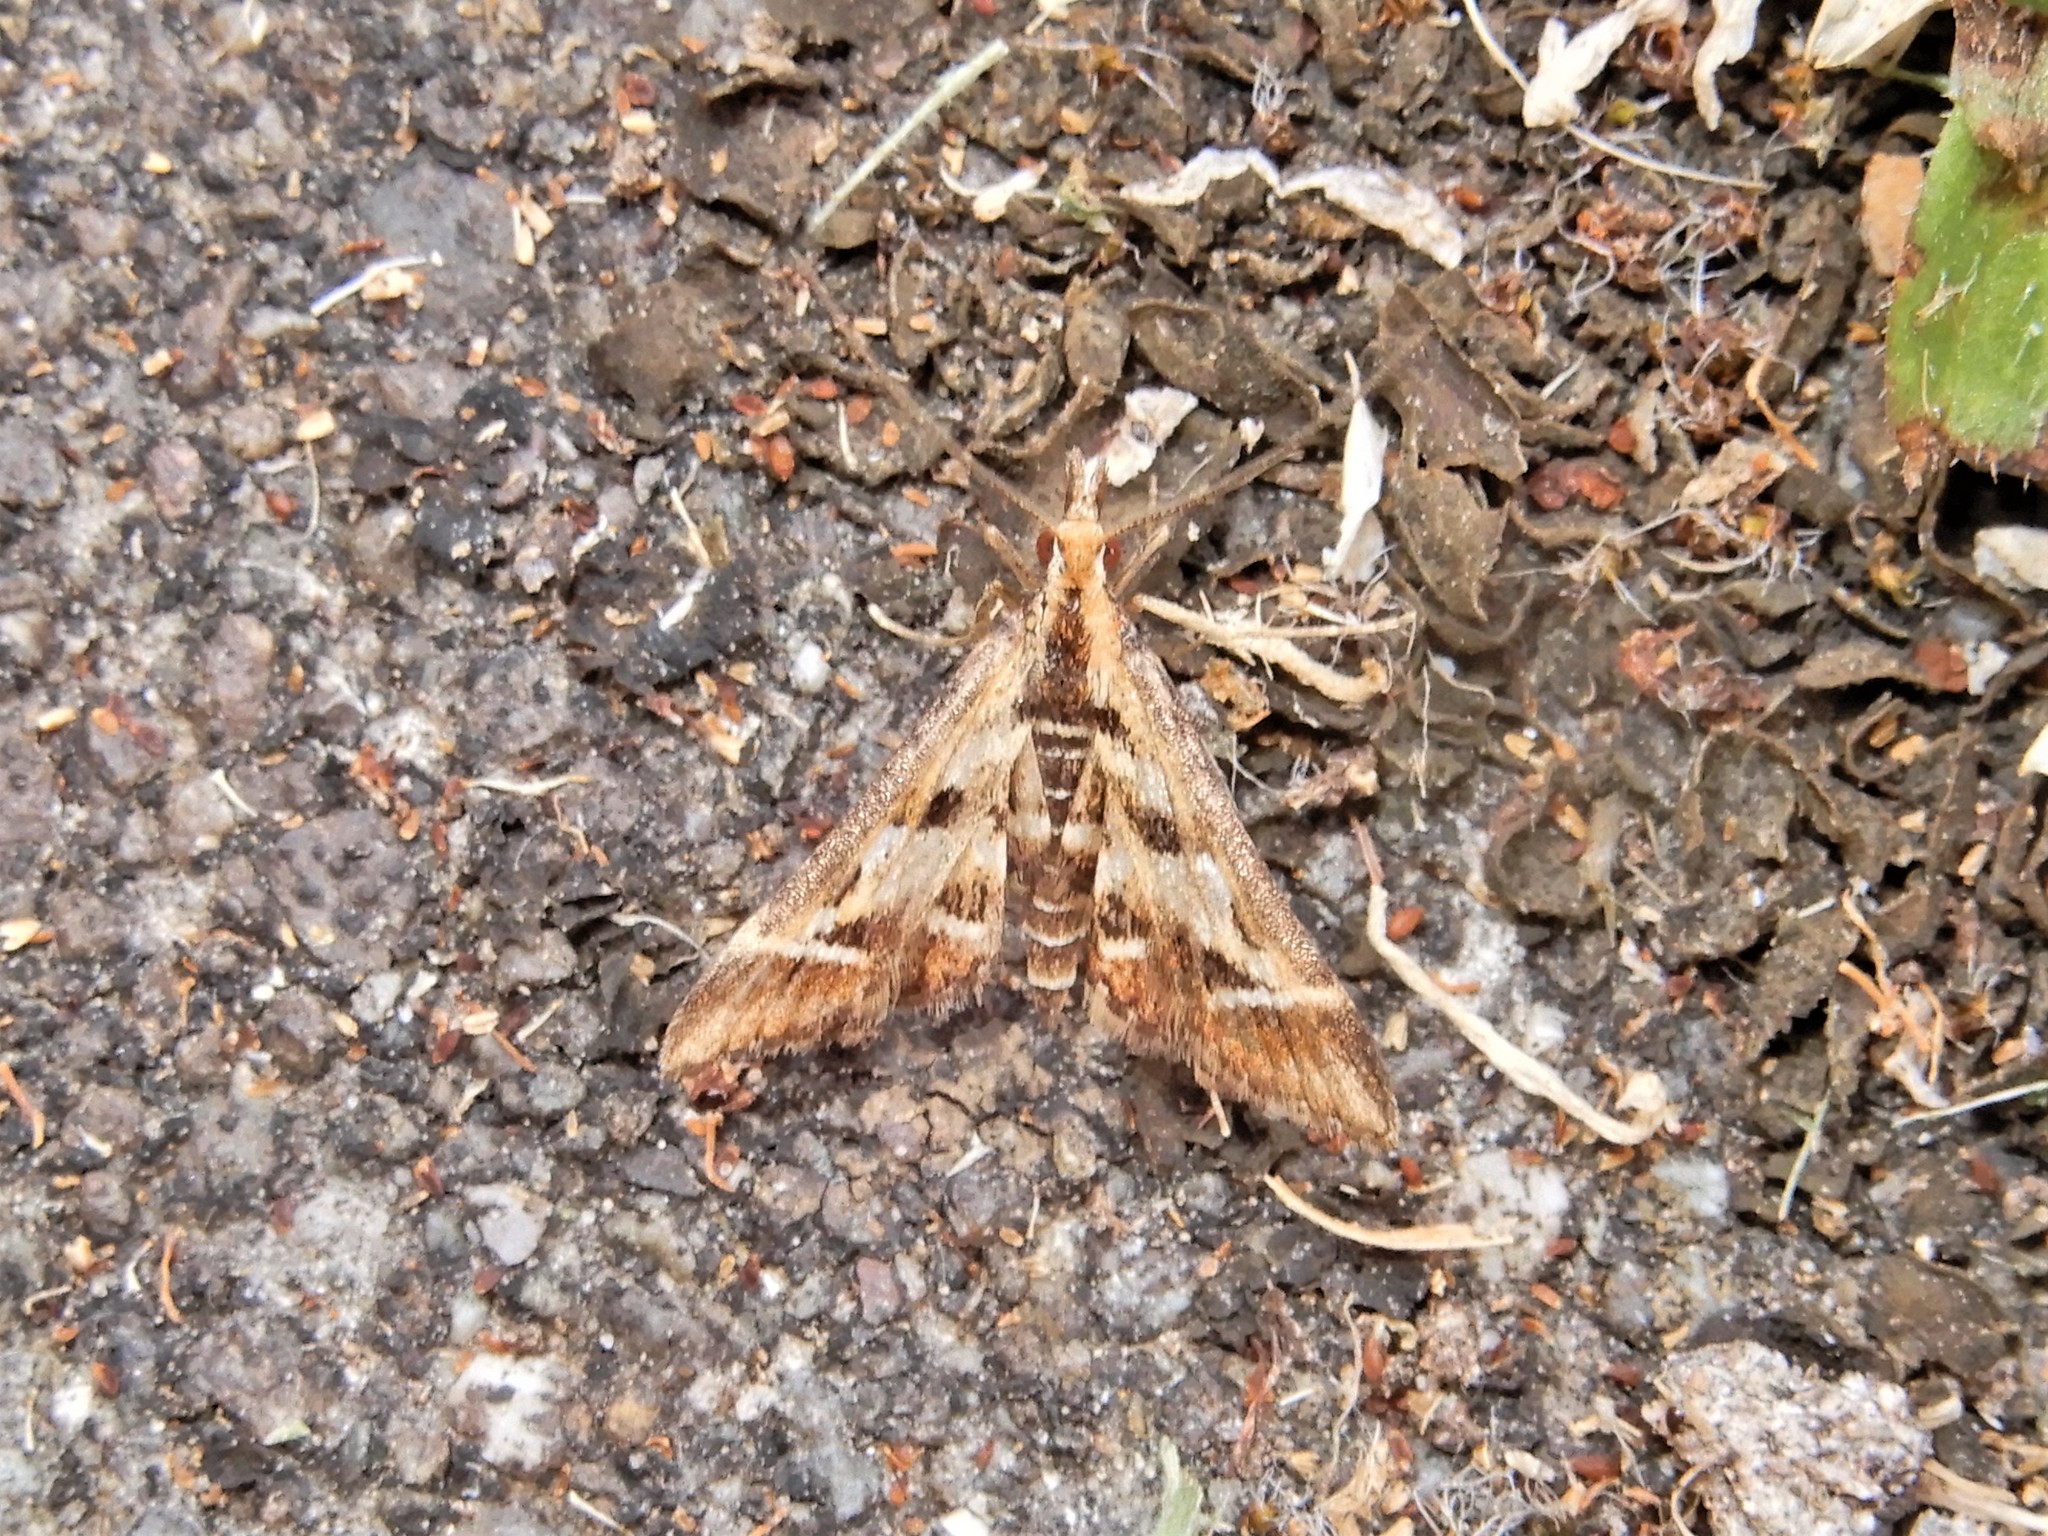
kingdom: Animalia
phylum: Arthropoda
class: Insecta
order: Lepidoptera
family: Crambidae
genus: Diasemia
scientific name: Diasemia grammalis
